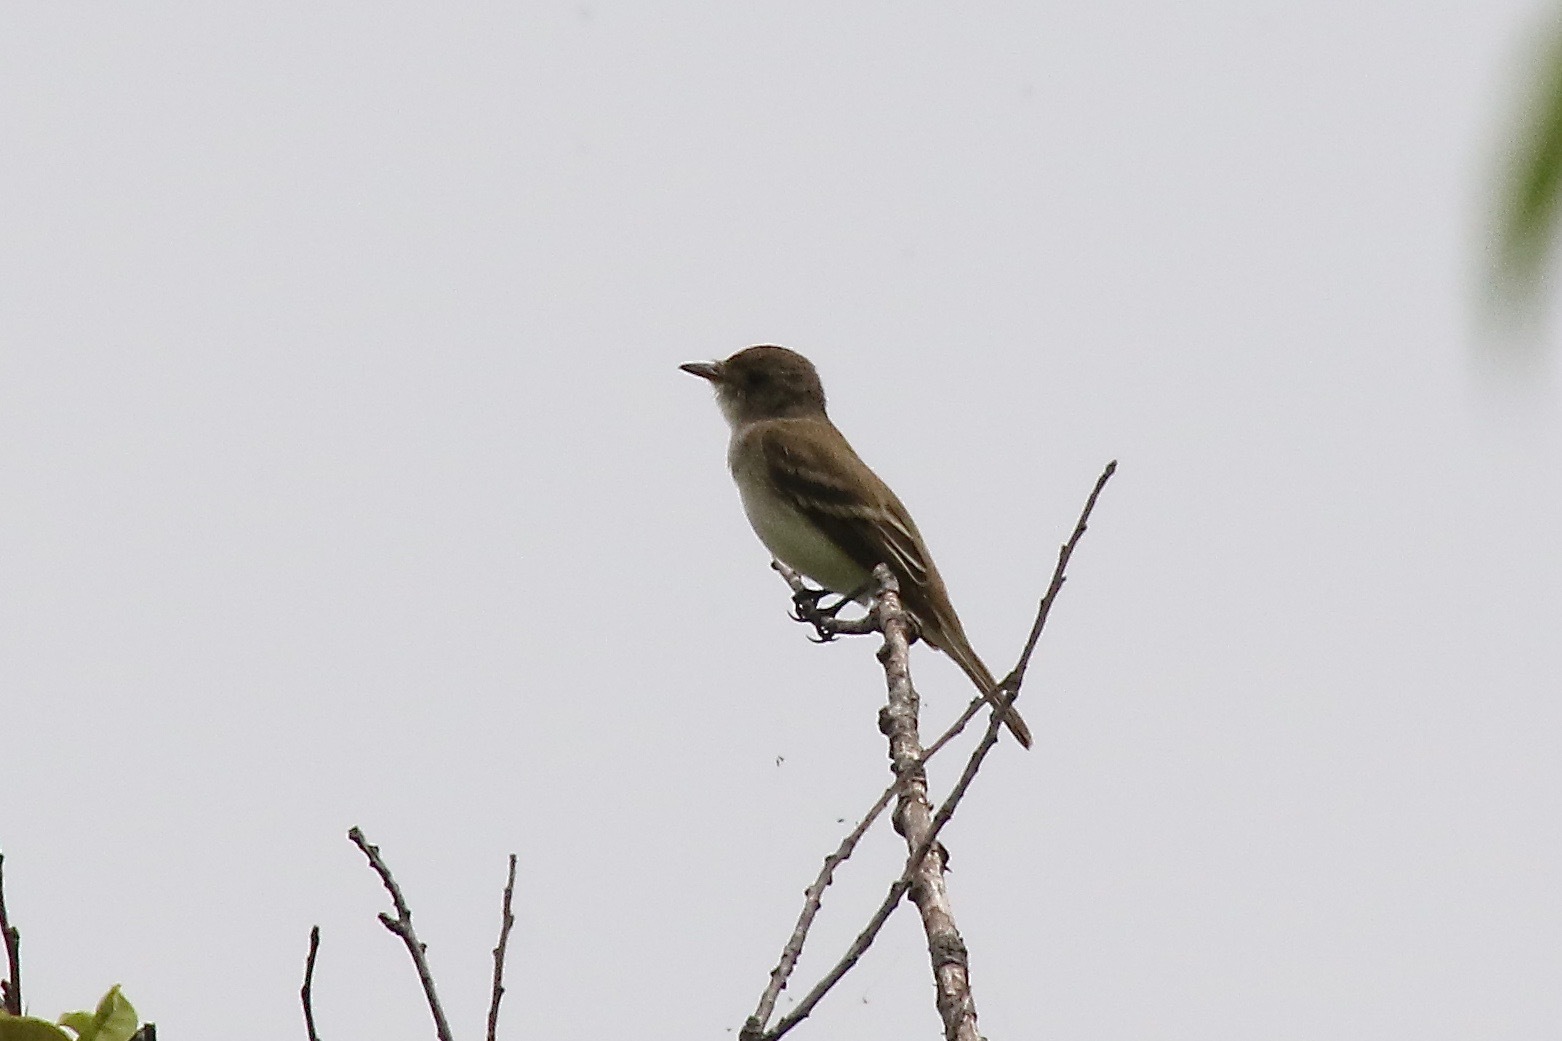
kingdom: Animalia
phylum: Chordata
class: Aves
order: Passeriformes
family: Tyrannidae
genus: Empidonax
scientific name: Empidonax traillii
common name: Willow flycatcher
